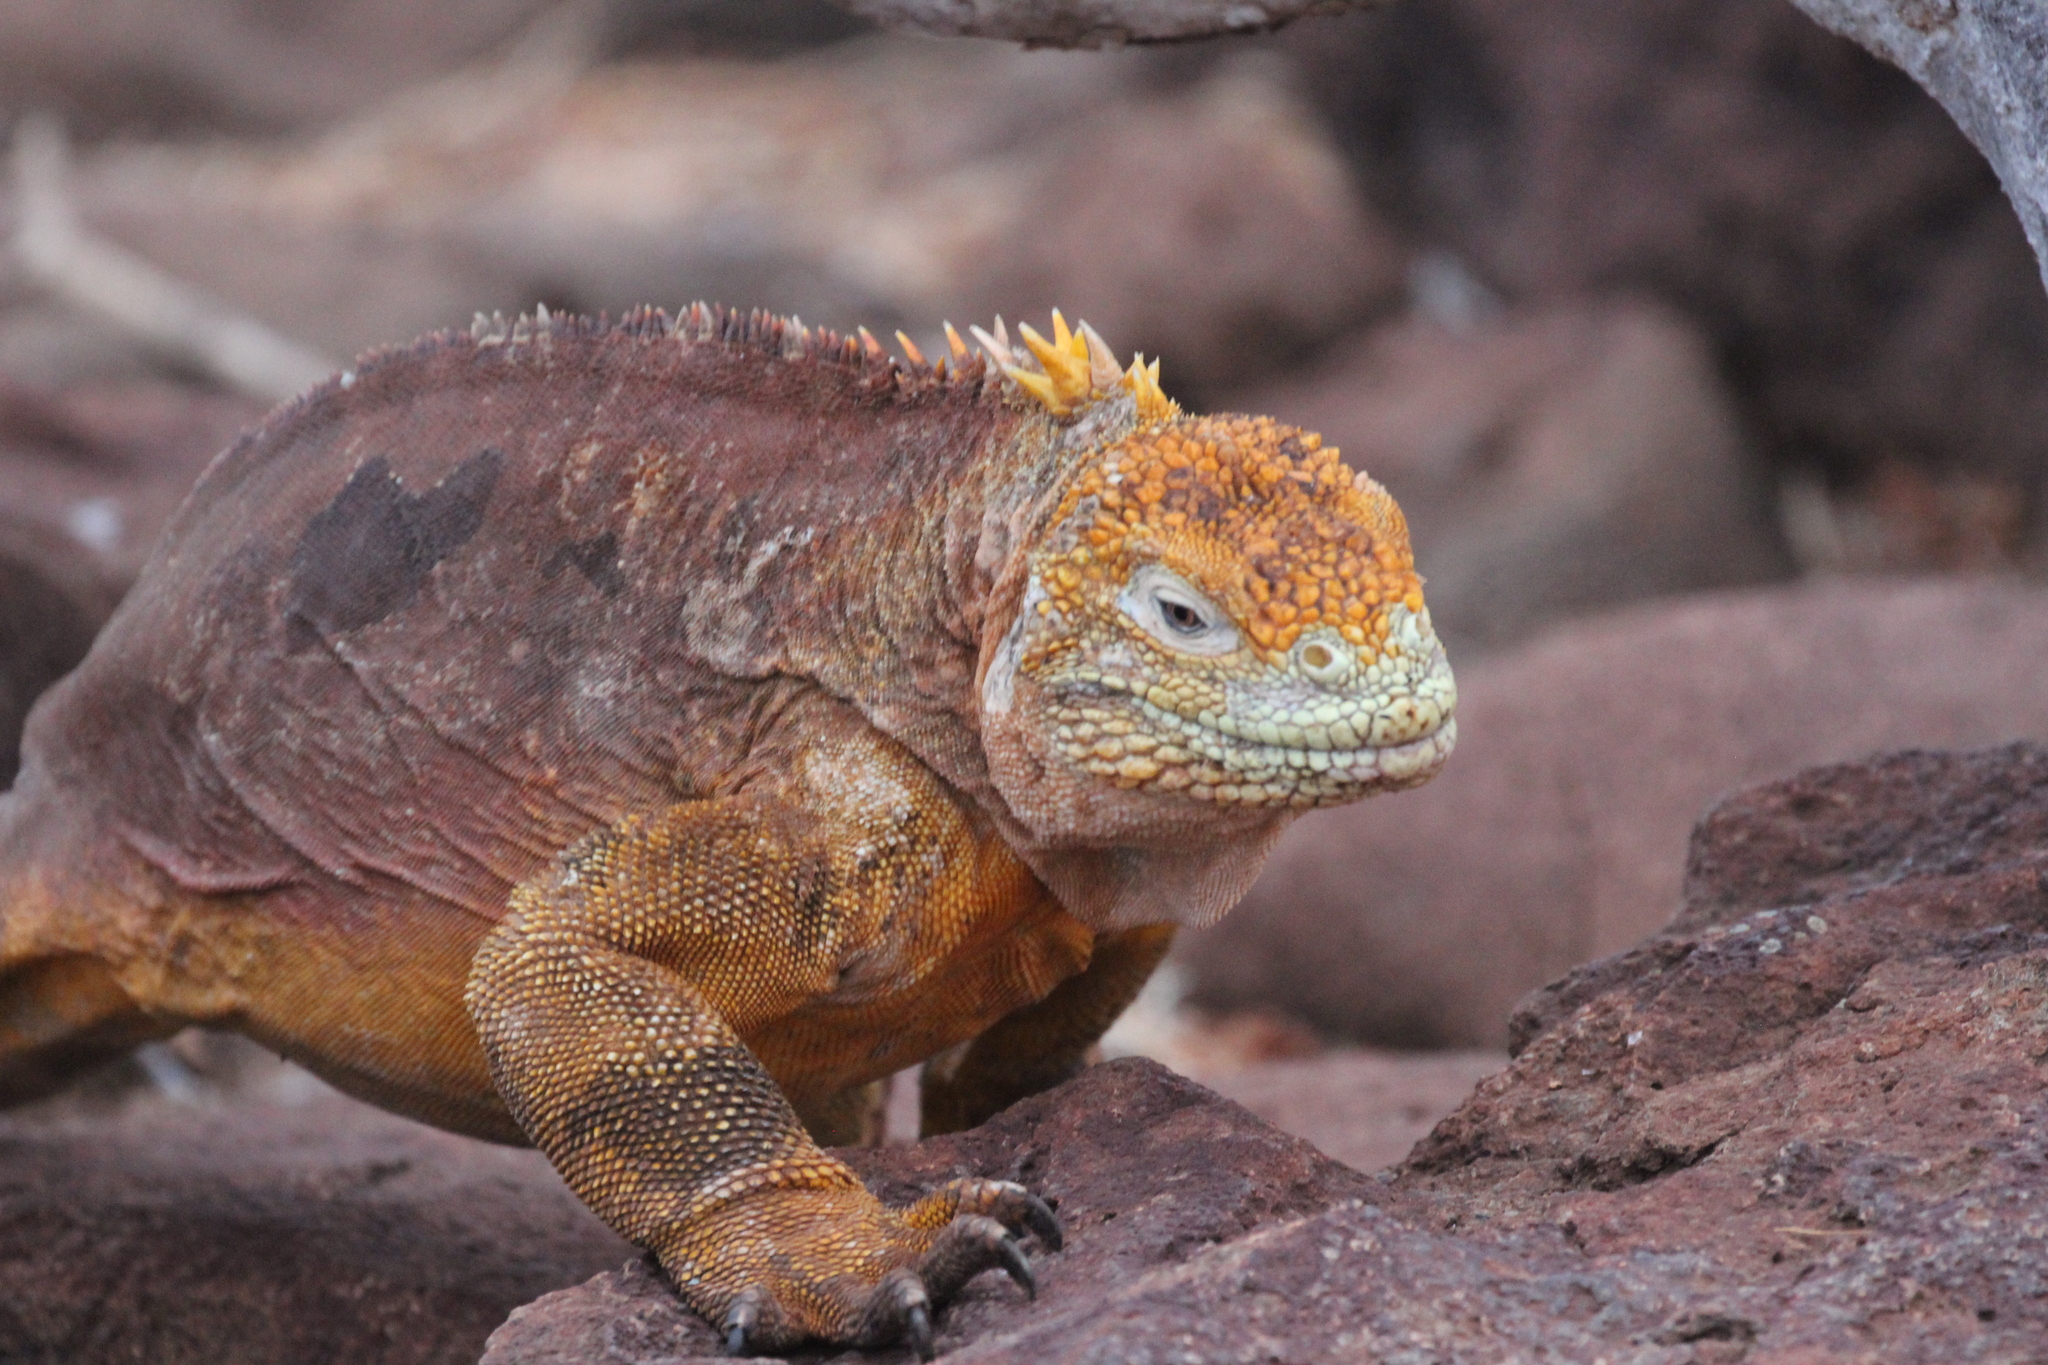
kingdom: Animalia
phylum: Chordata
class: Squamata
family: Iguanidae
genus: Conolophus
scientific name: Conolophus subcristatus
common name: Galapagos land iguana
